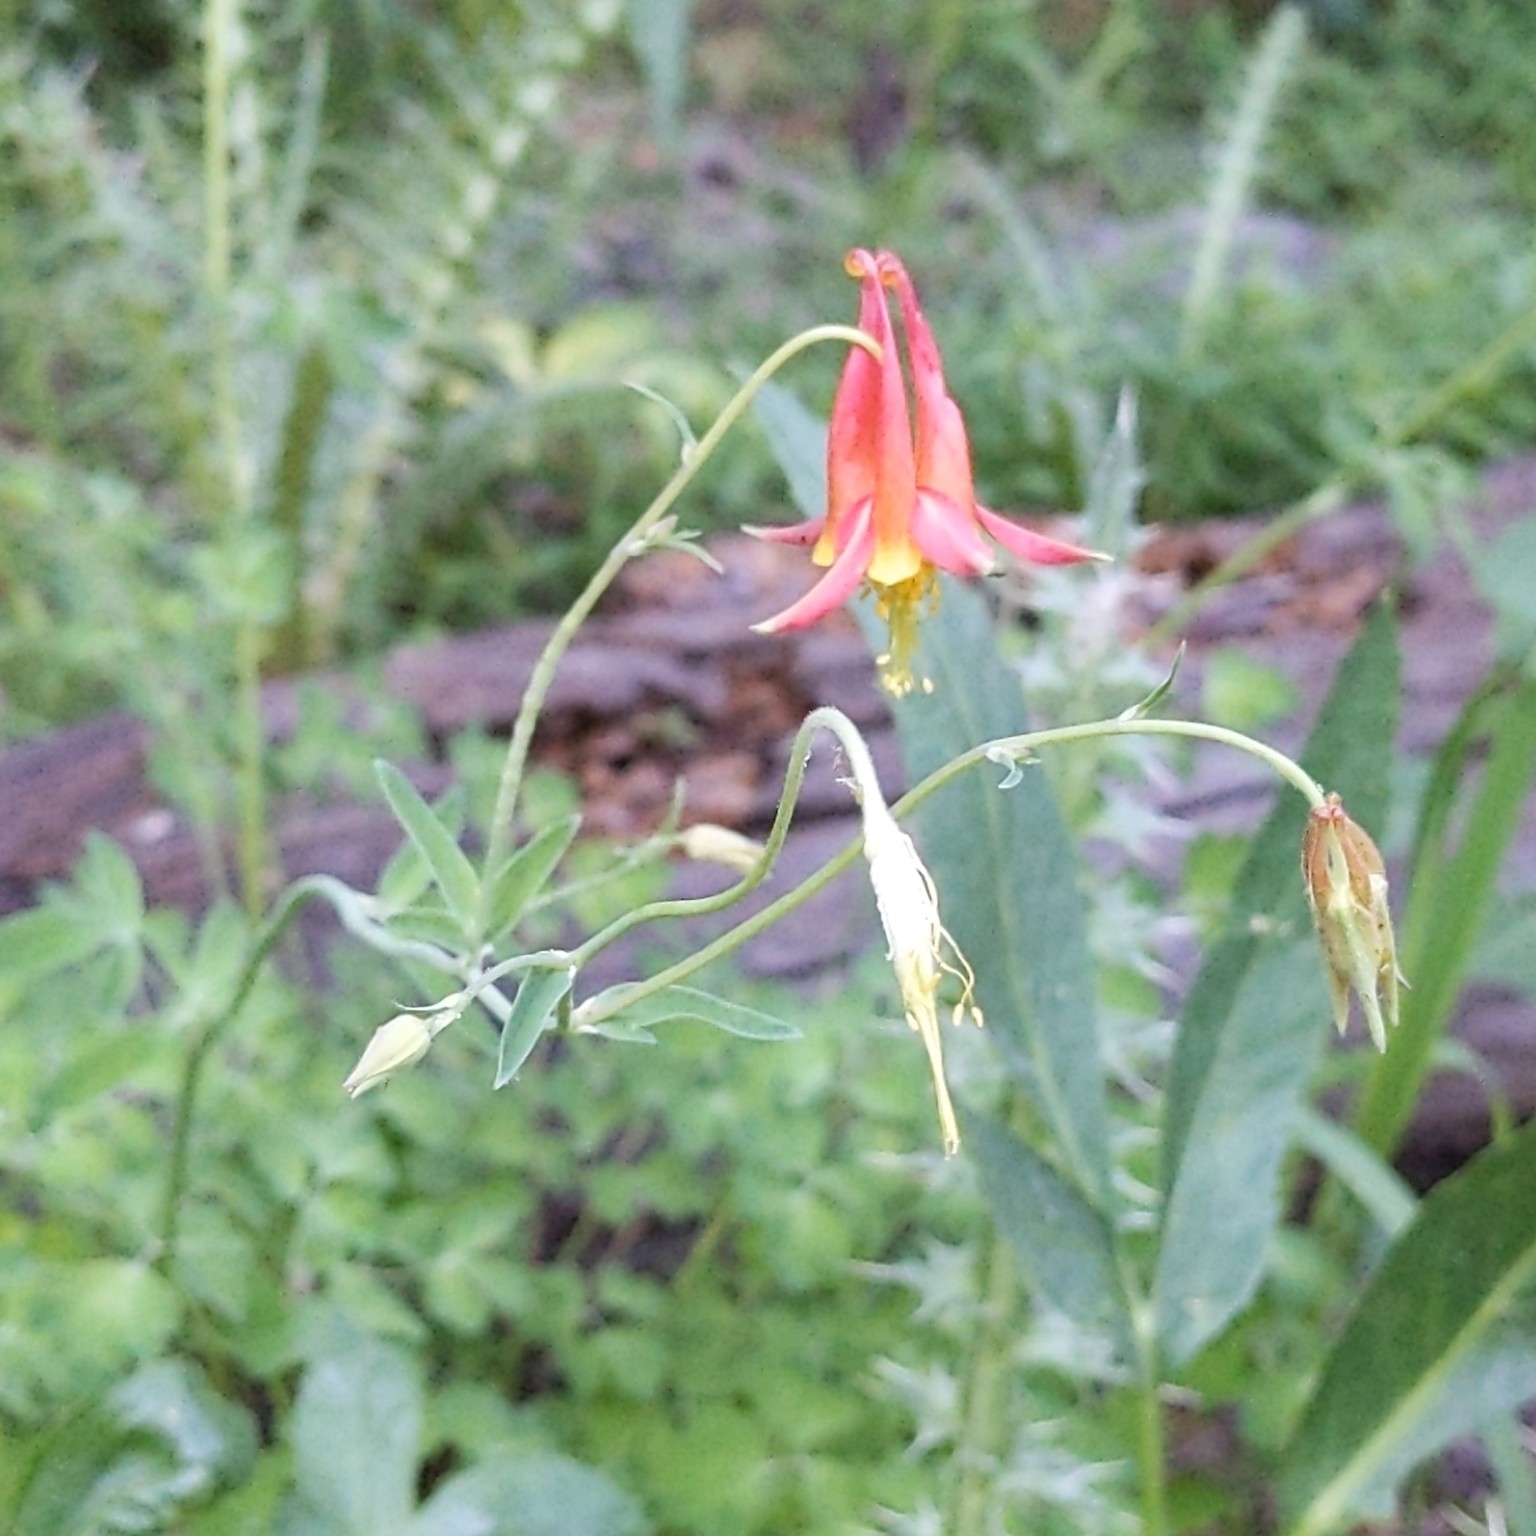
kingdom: Plantae
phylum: Tracheophyta
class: Magnoliopsida
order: Ranunculales
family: Ranunculaceae
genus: Aquilegia
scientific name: Aquilegia formosa
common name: Sitka columbine
